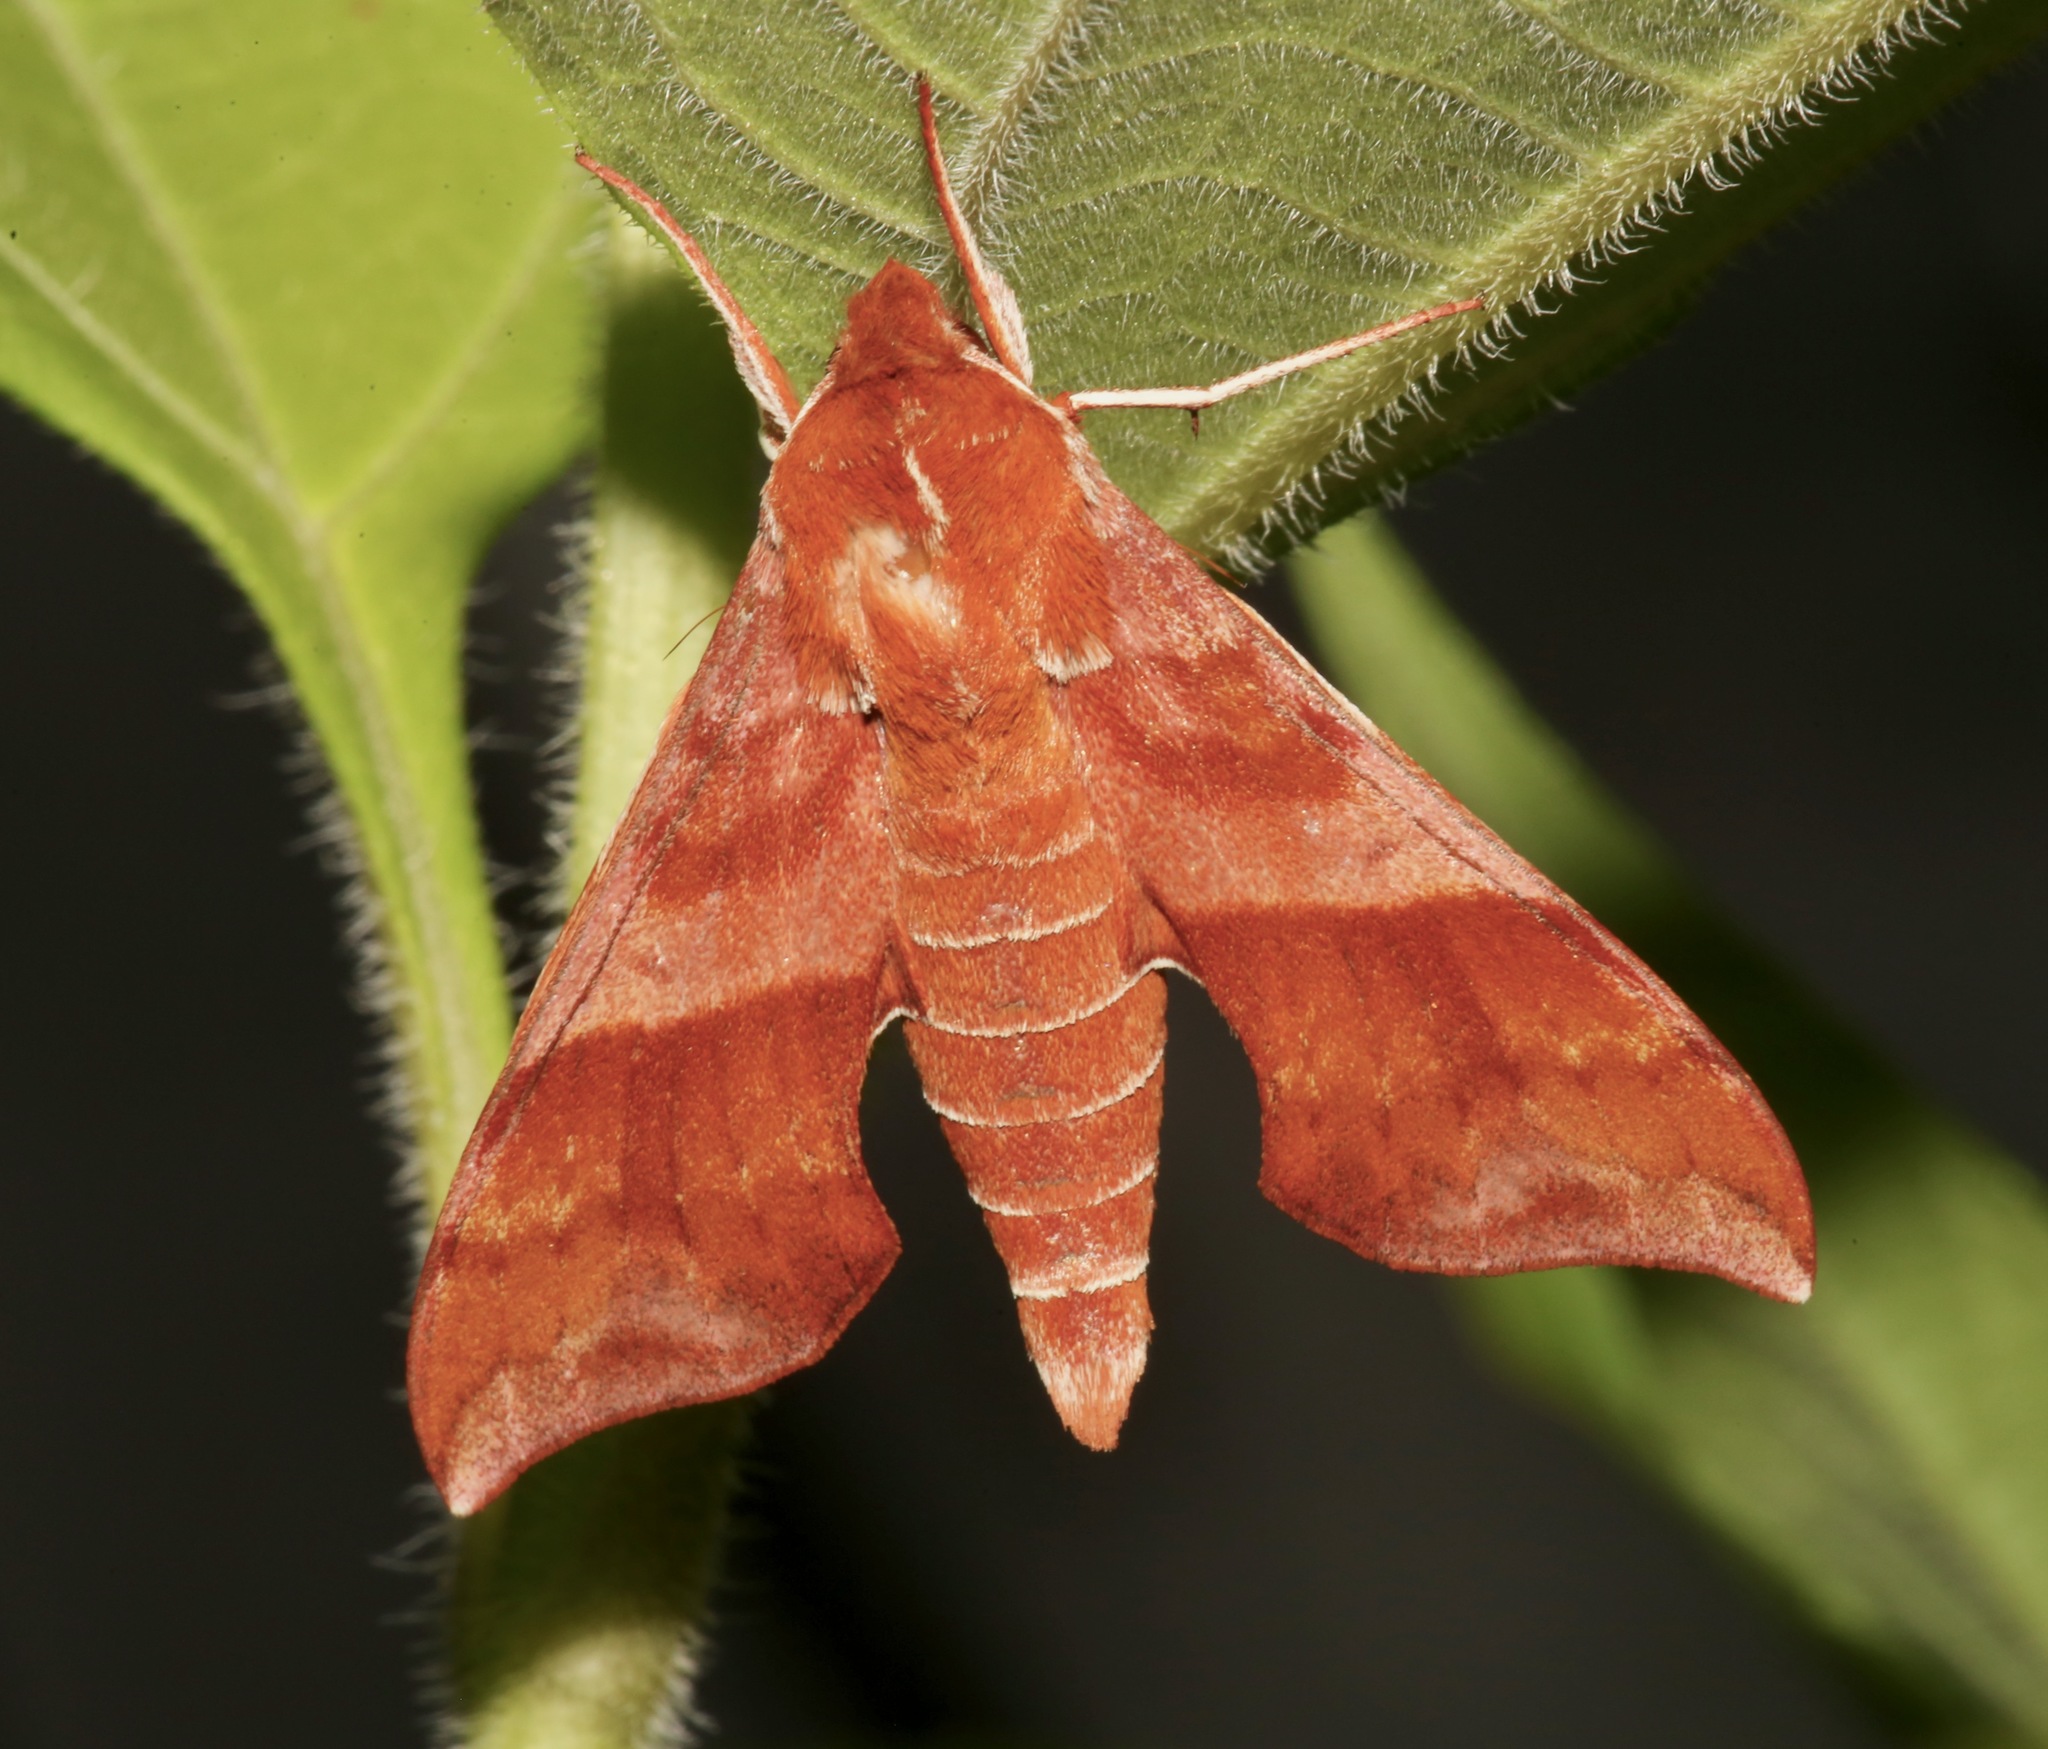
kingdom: Animalia
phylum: Arthropoda
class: Insecta
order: Lepidoptera
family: Sphingidae
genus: Darapsa
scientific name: Darapsa choerilus
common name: Azalea sphinx
